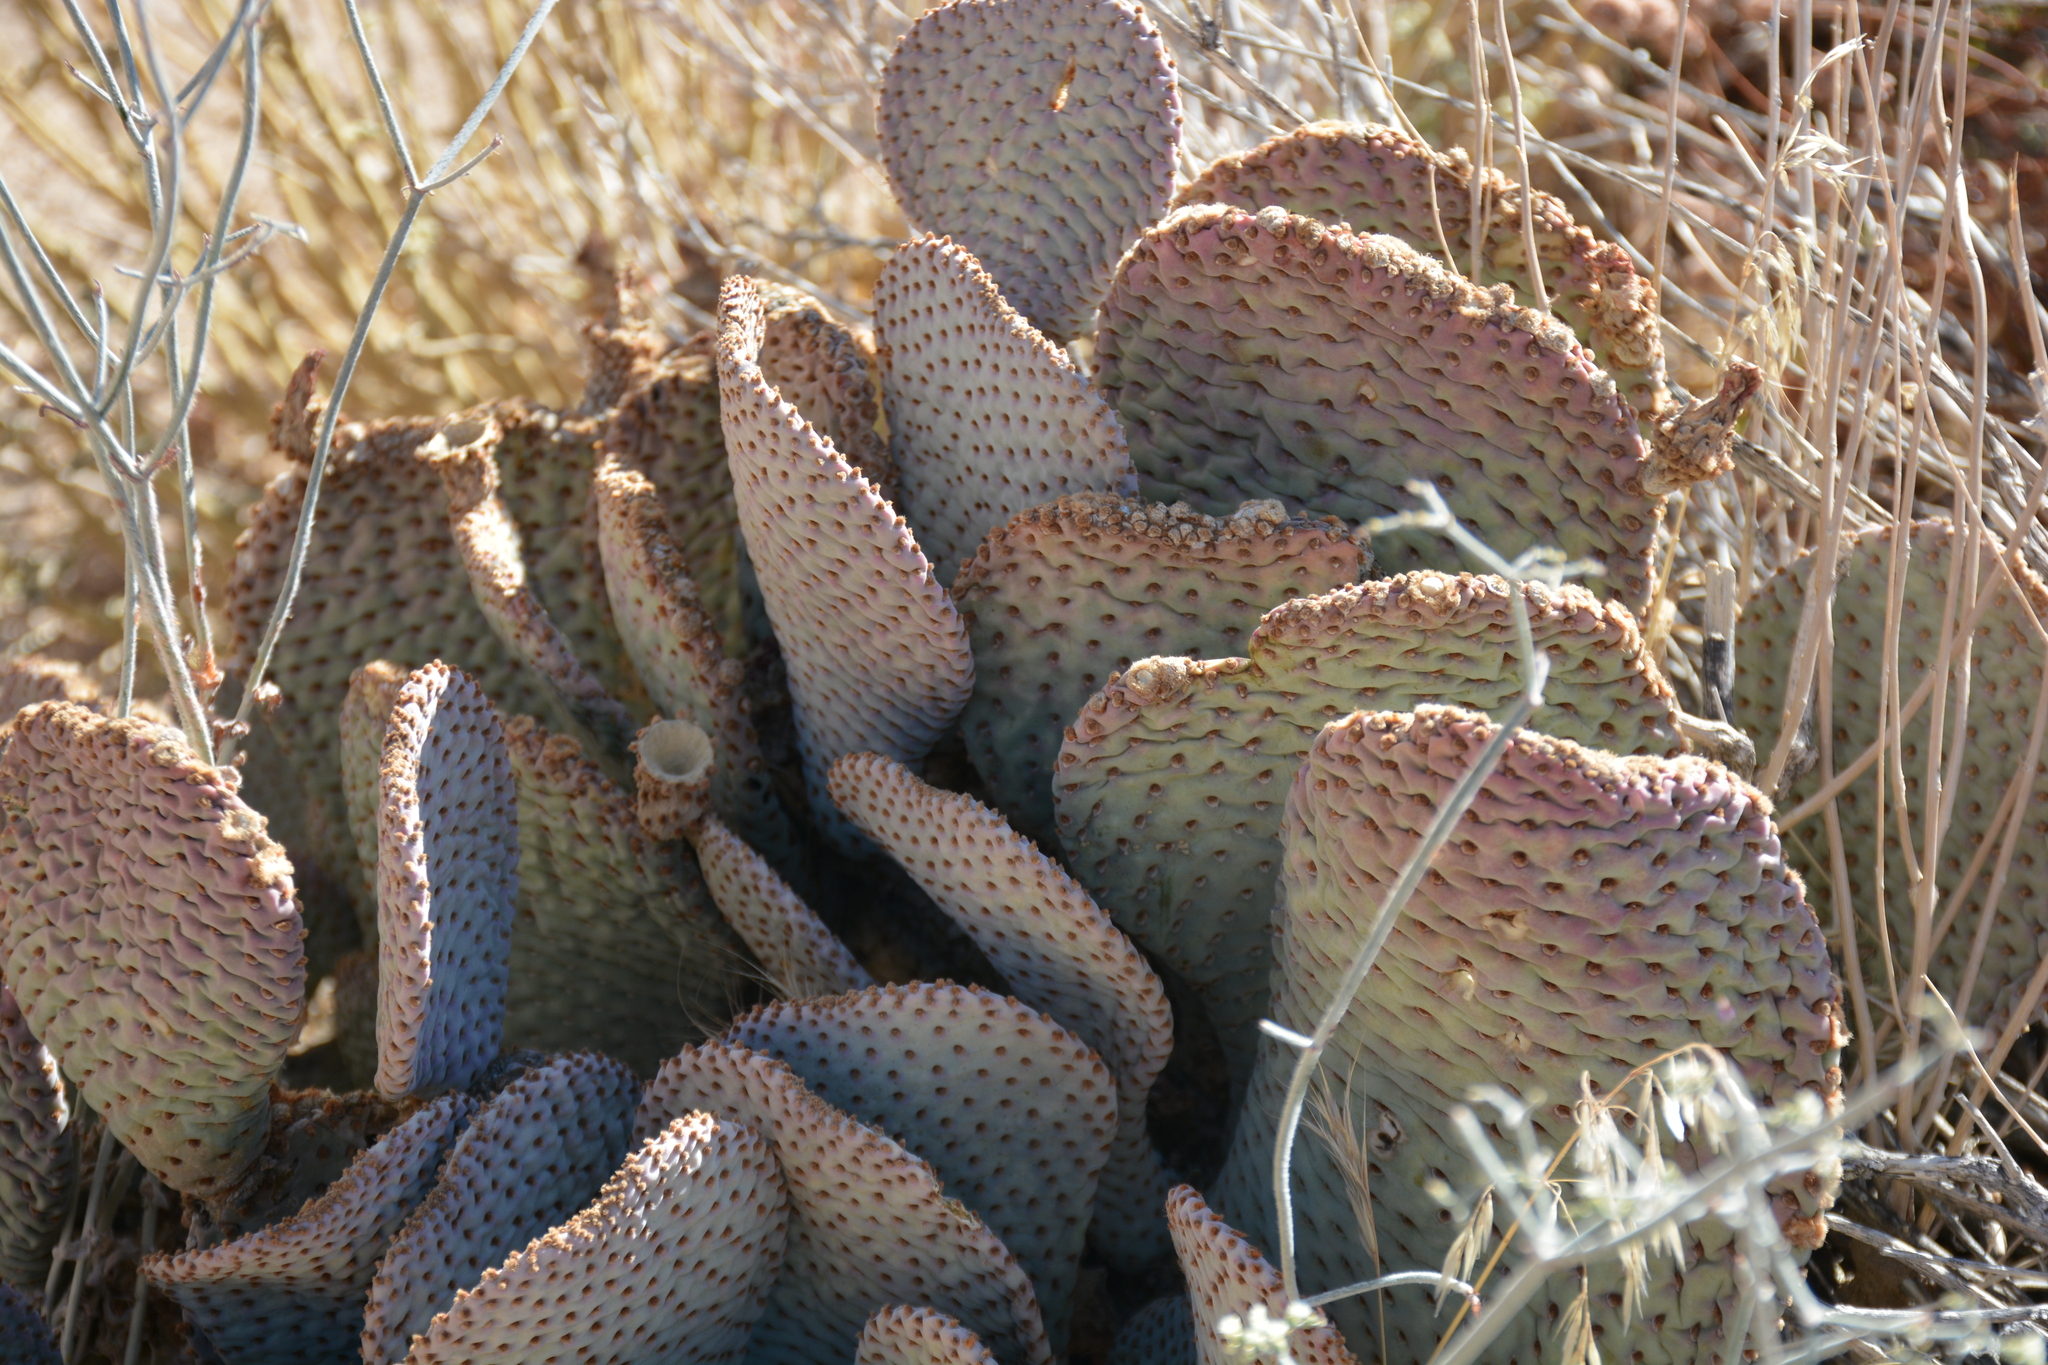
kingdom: Plantae
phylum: Tracheophyta
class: Magnoliopsida
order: Caryophyllales
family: Cactaceae
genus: Opuntia
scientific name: Opuntia basilaris
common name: Beavertail prickly-pear
